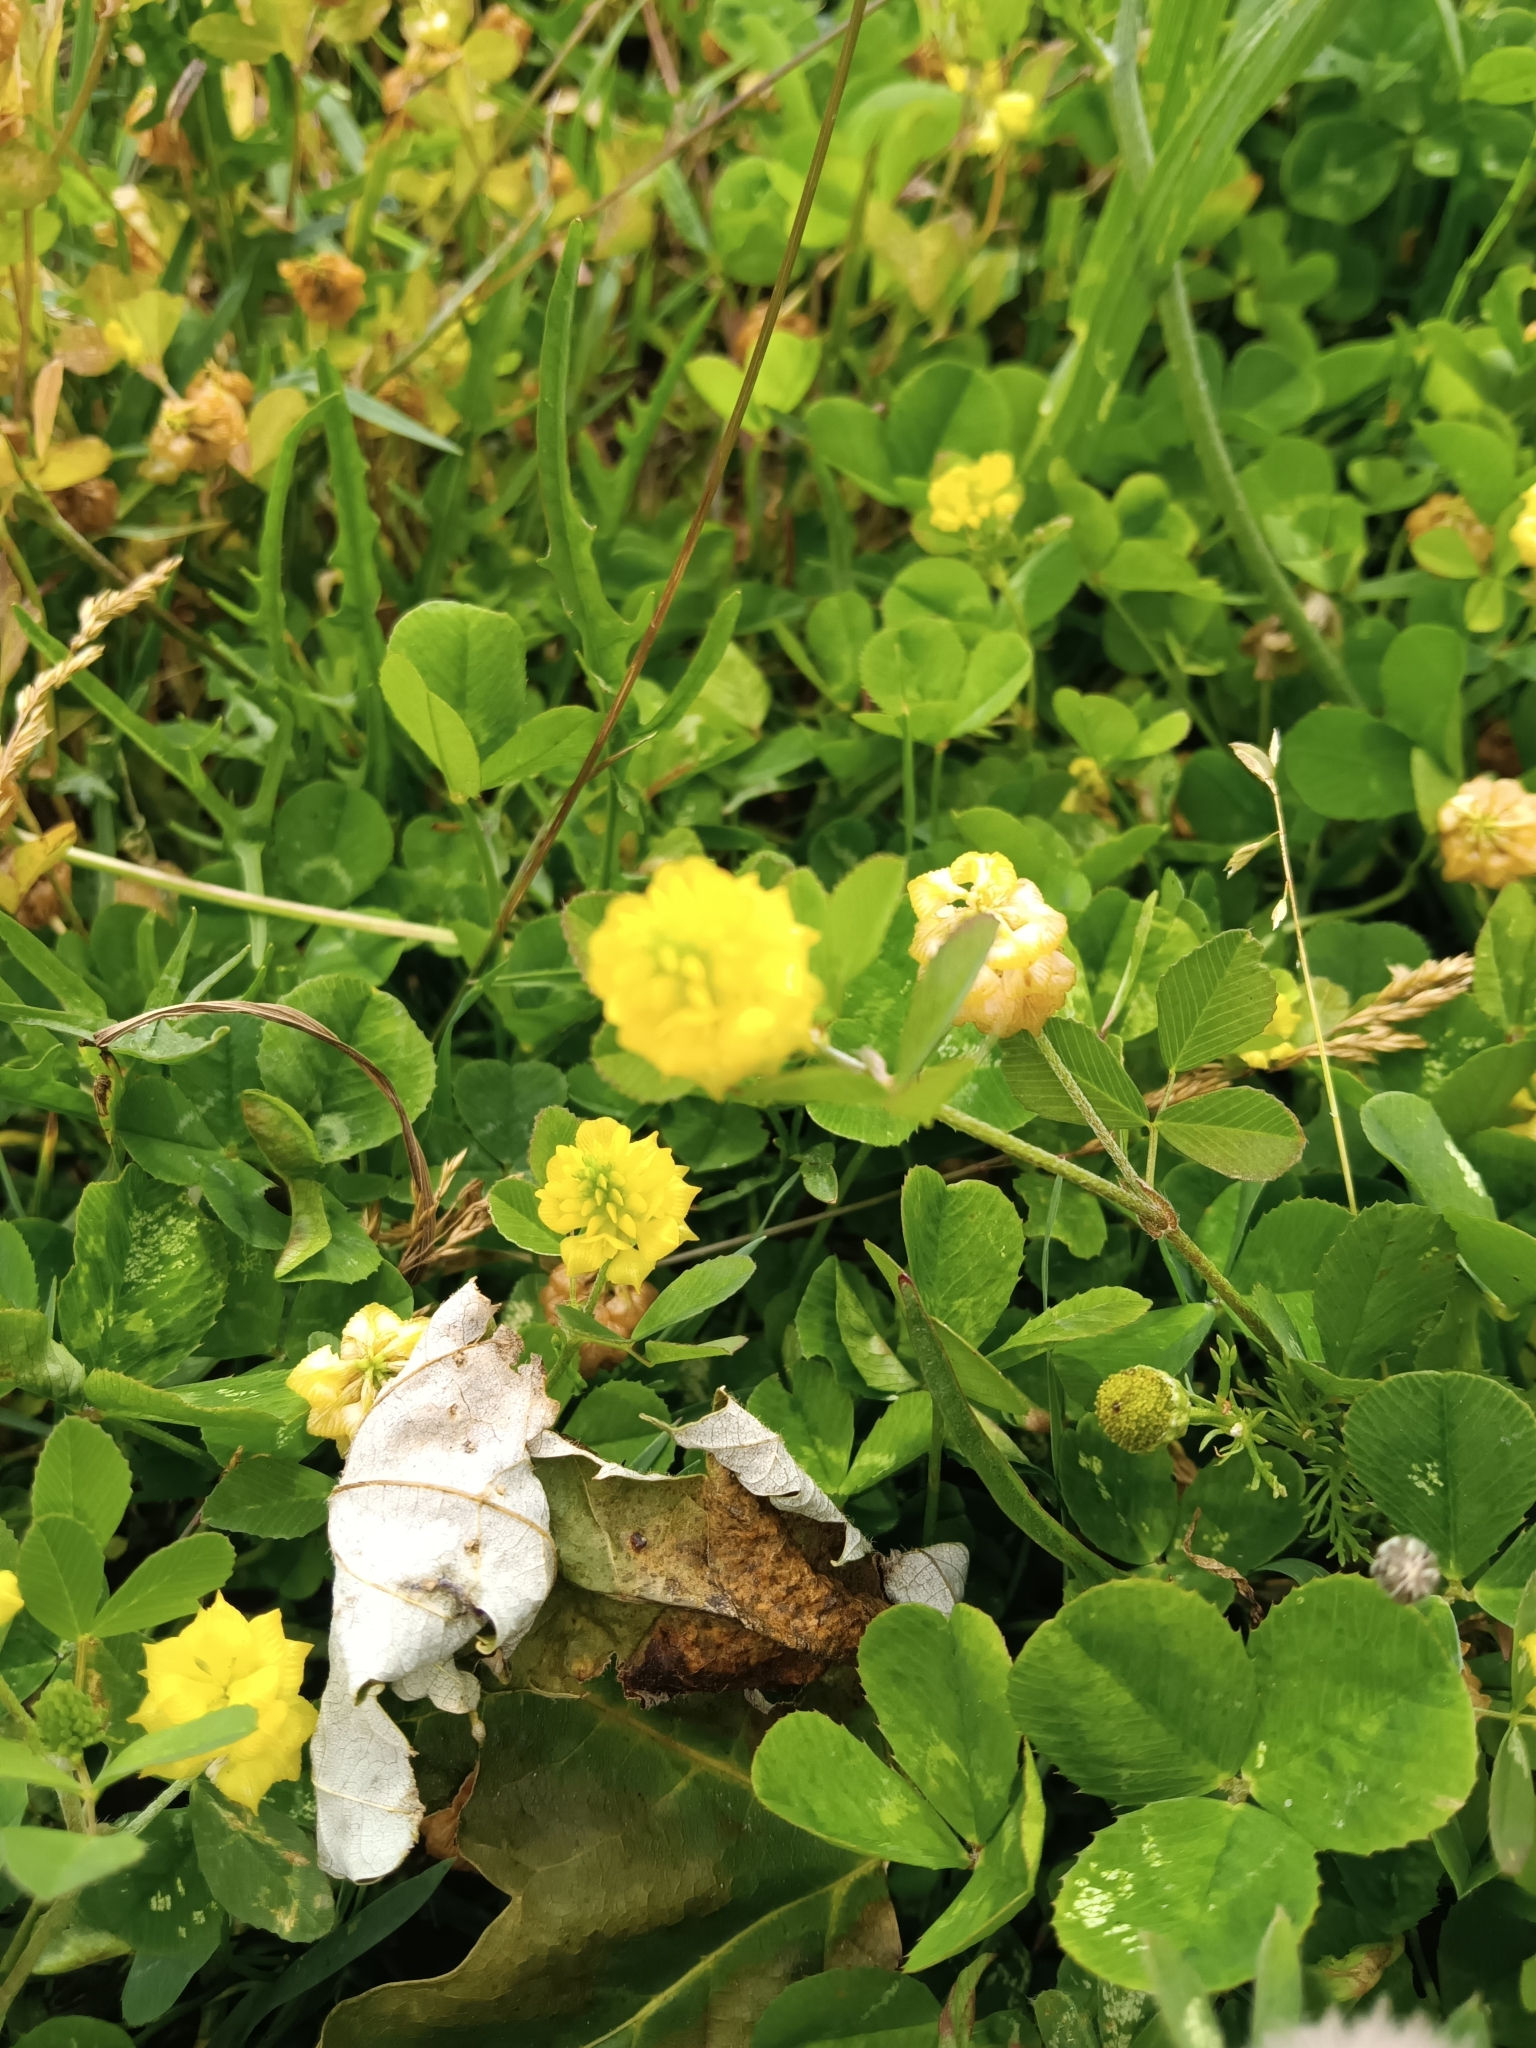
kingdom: Plantae
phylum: Tracheophyta
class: Magnoliopsida
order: Fabales
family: Fabaceae
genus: Trifolium
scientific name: Trifolium campestre
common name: Field clover
